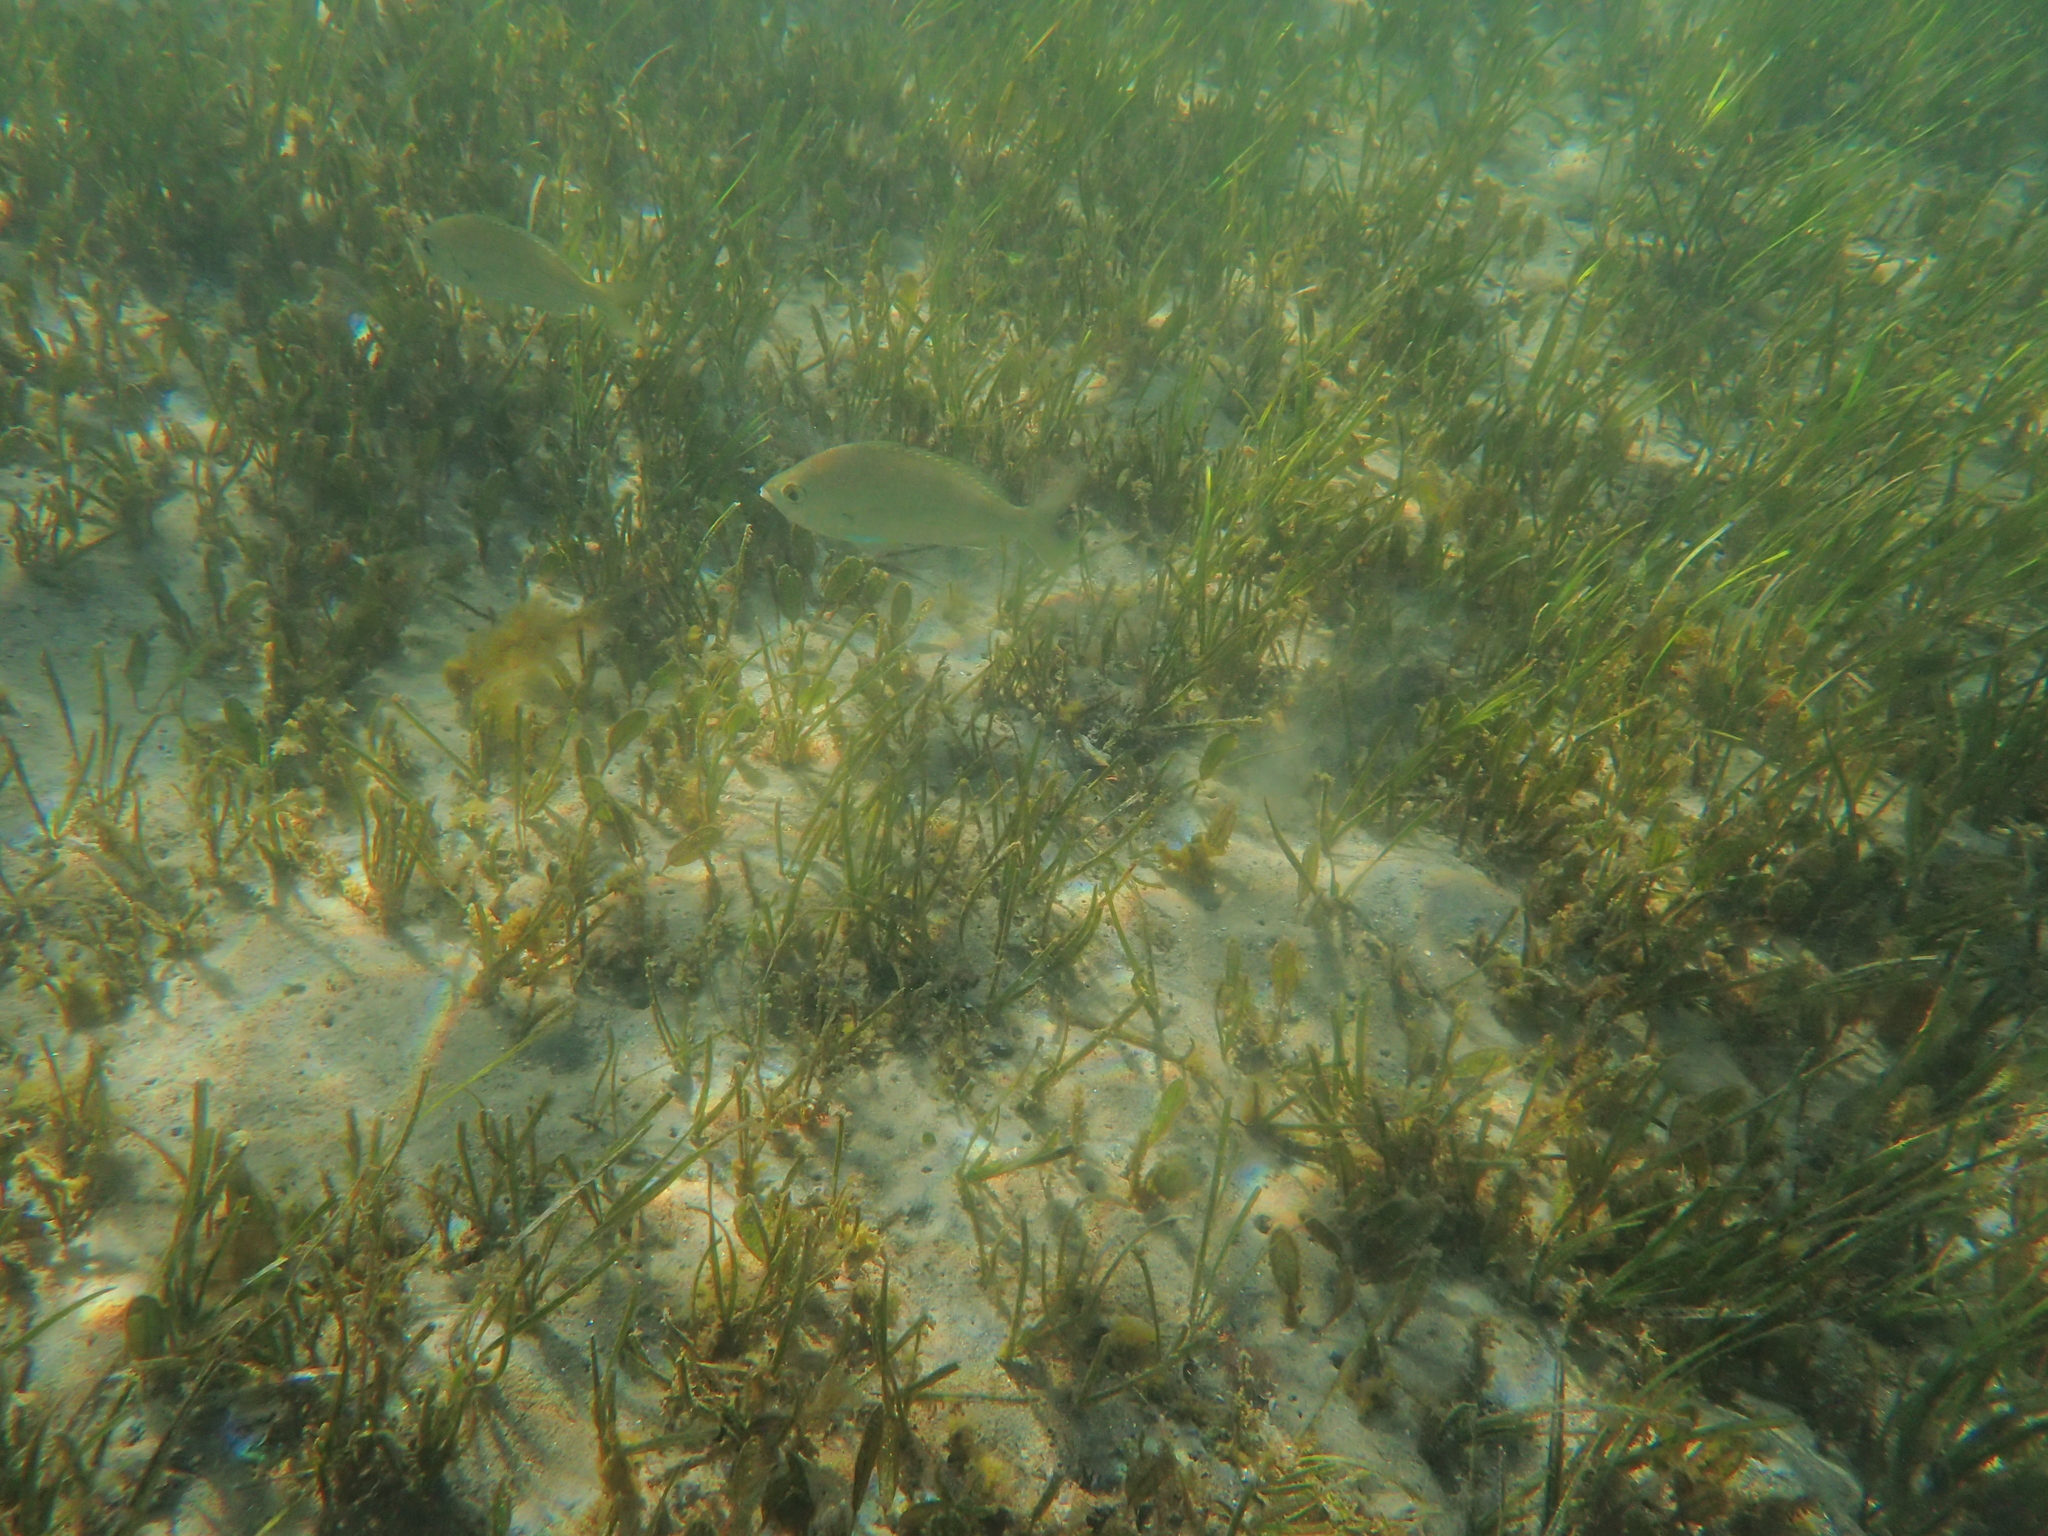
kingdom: Animalia
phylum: Chordata
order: Perciformes
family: Gerreidae
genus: Gerres
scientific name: Gerres subfasciatus
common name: Common silver belly
